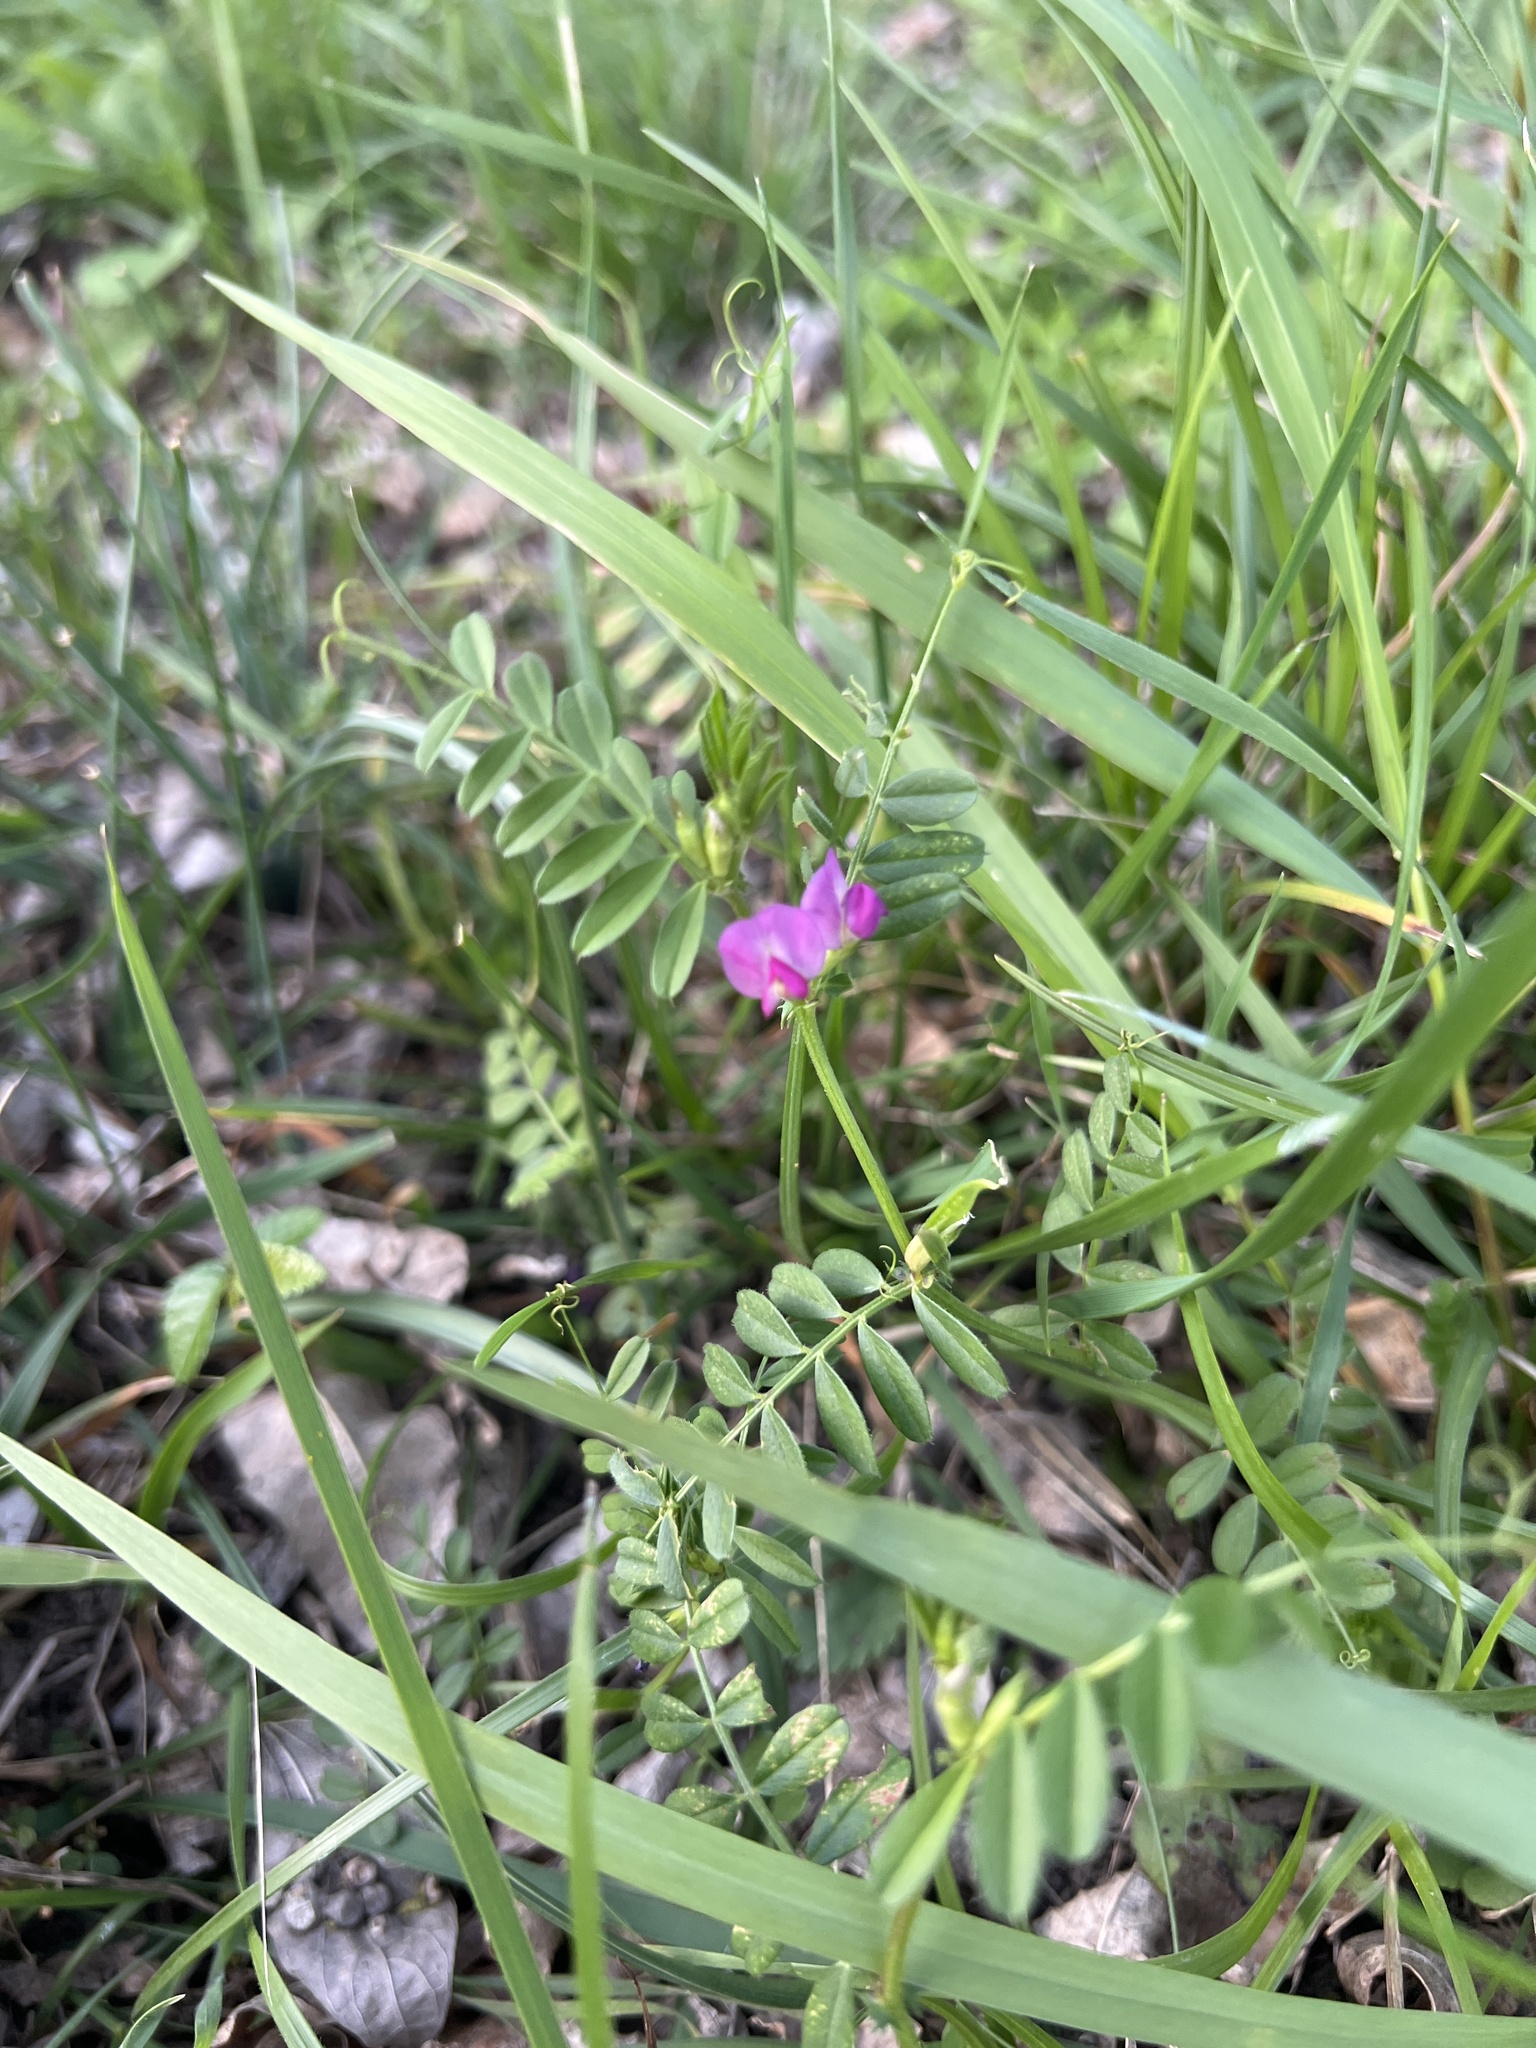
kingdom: Plantae
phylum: Tracheophyta
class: Magnoliopsida
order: Fabales
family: Fabaceae
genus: Vicia
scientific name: Vicia sativa
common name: Garden vetch
